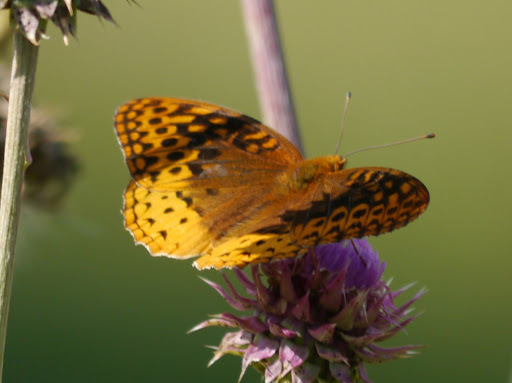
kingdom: Animalia
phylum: Arthropoda
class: Insecta
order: Lepidoptera
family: Nymphalidae
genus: Speyeria
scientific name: Speyeria cybele
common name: Great spangled fritillary
